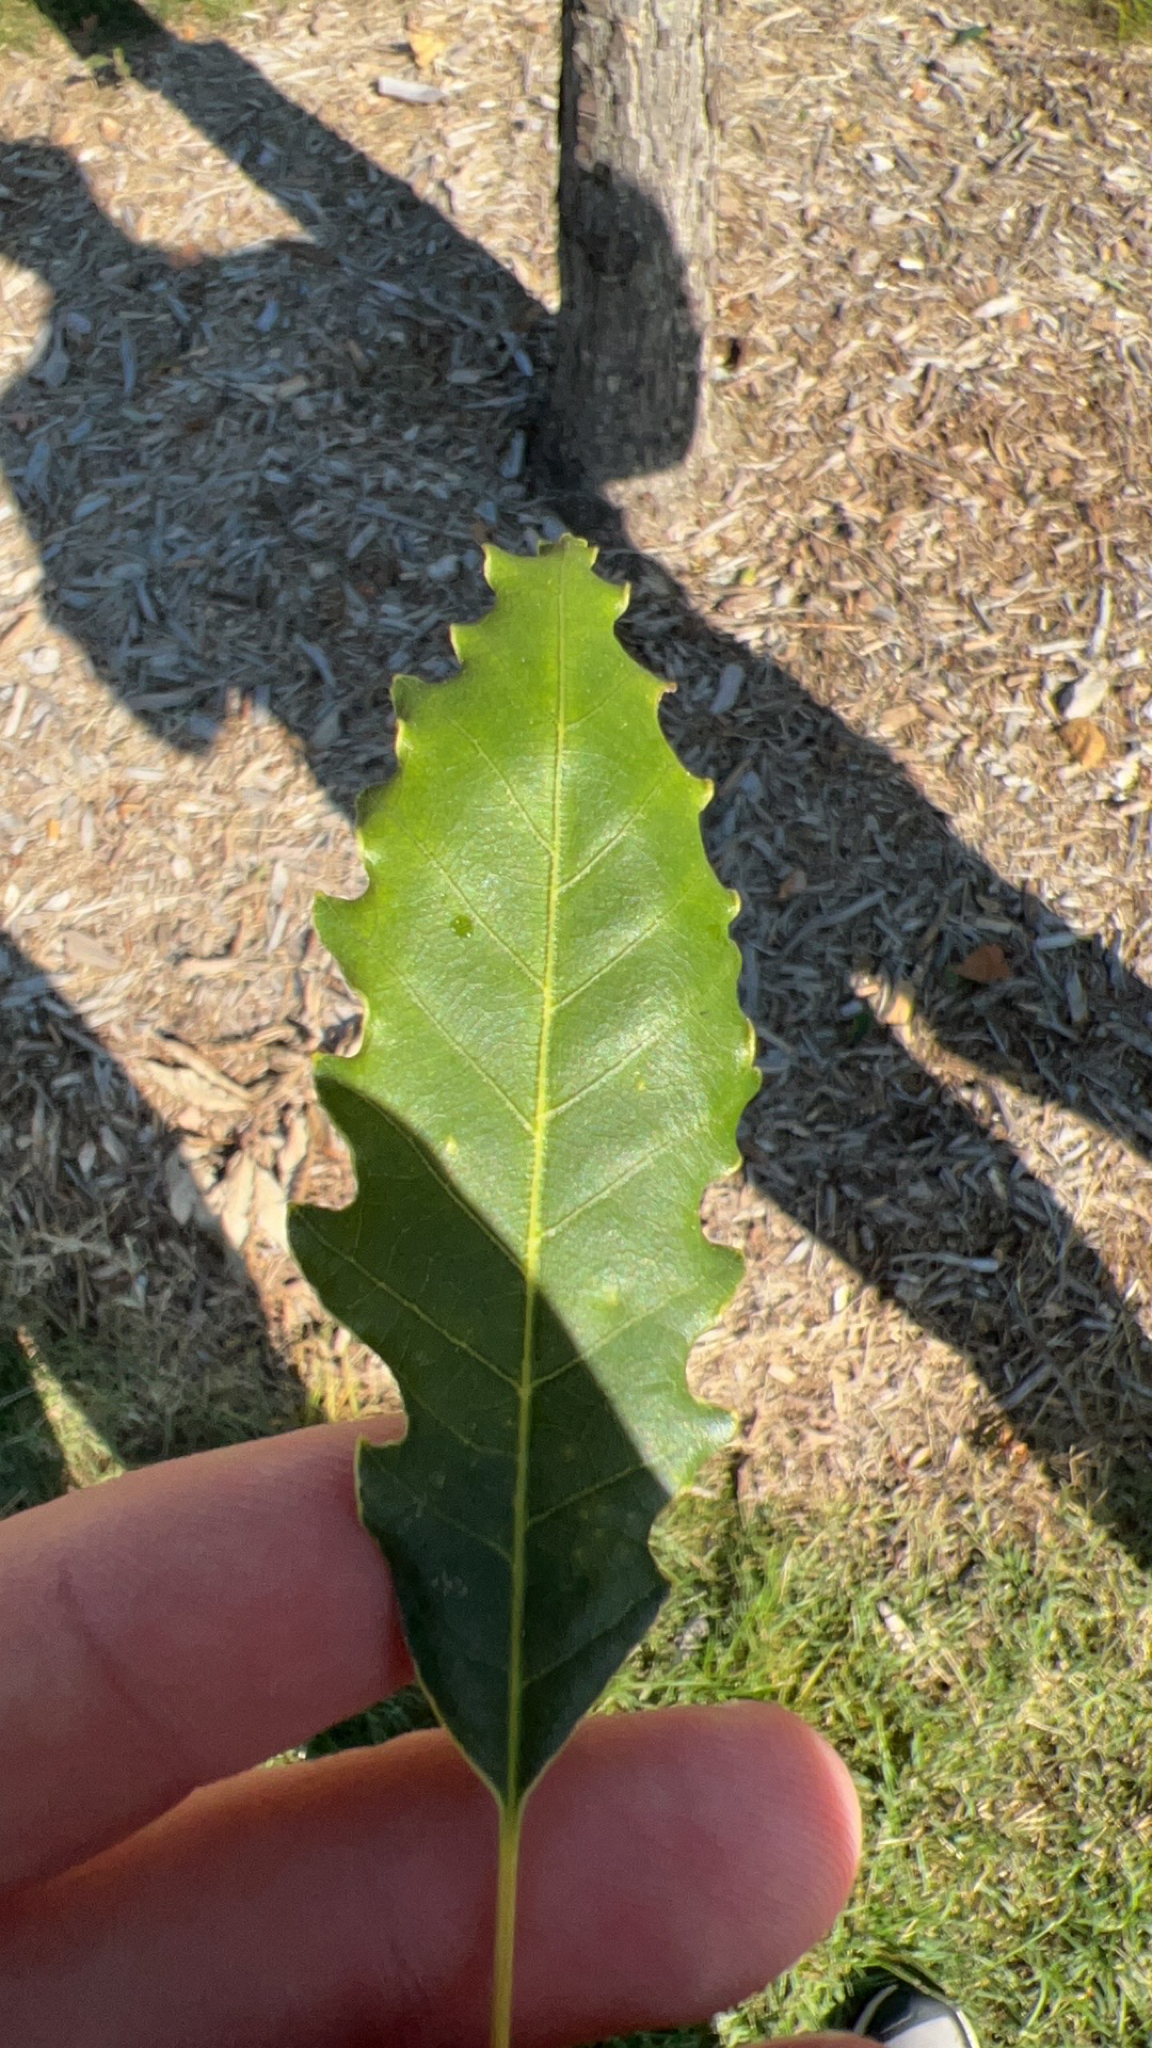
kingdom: Plantae
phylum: Tracheophyta
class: Magnoliopsida
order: Fagales
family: Fagaceae
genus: Quercus
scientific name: Quercus muehlenbergii
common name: Chinkapin oak
